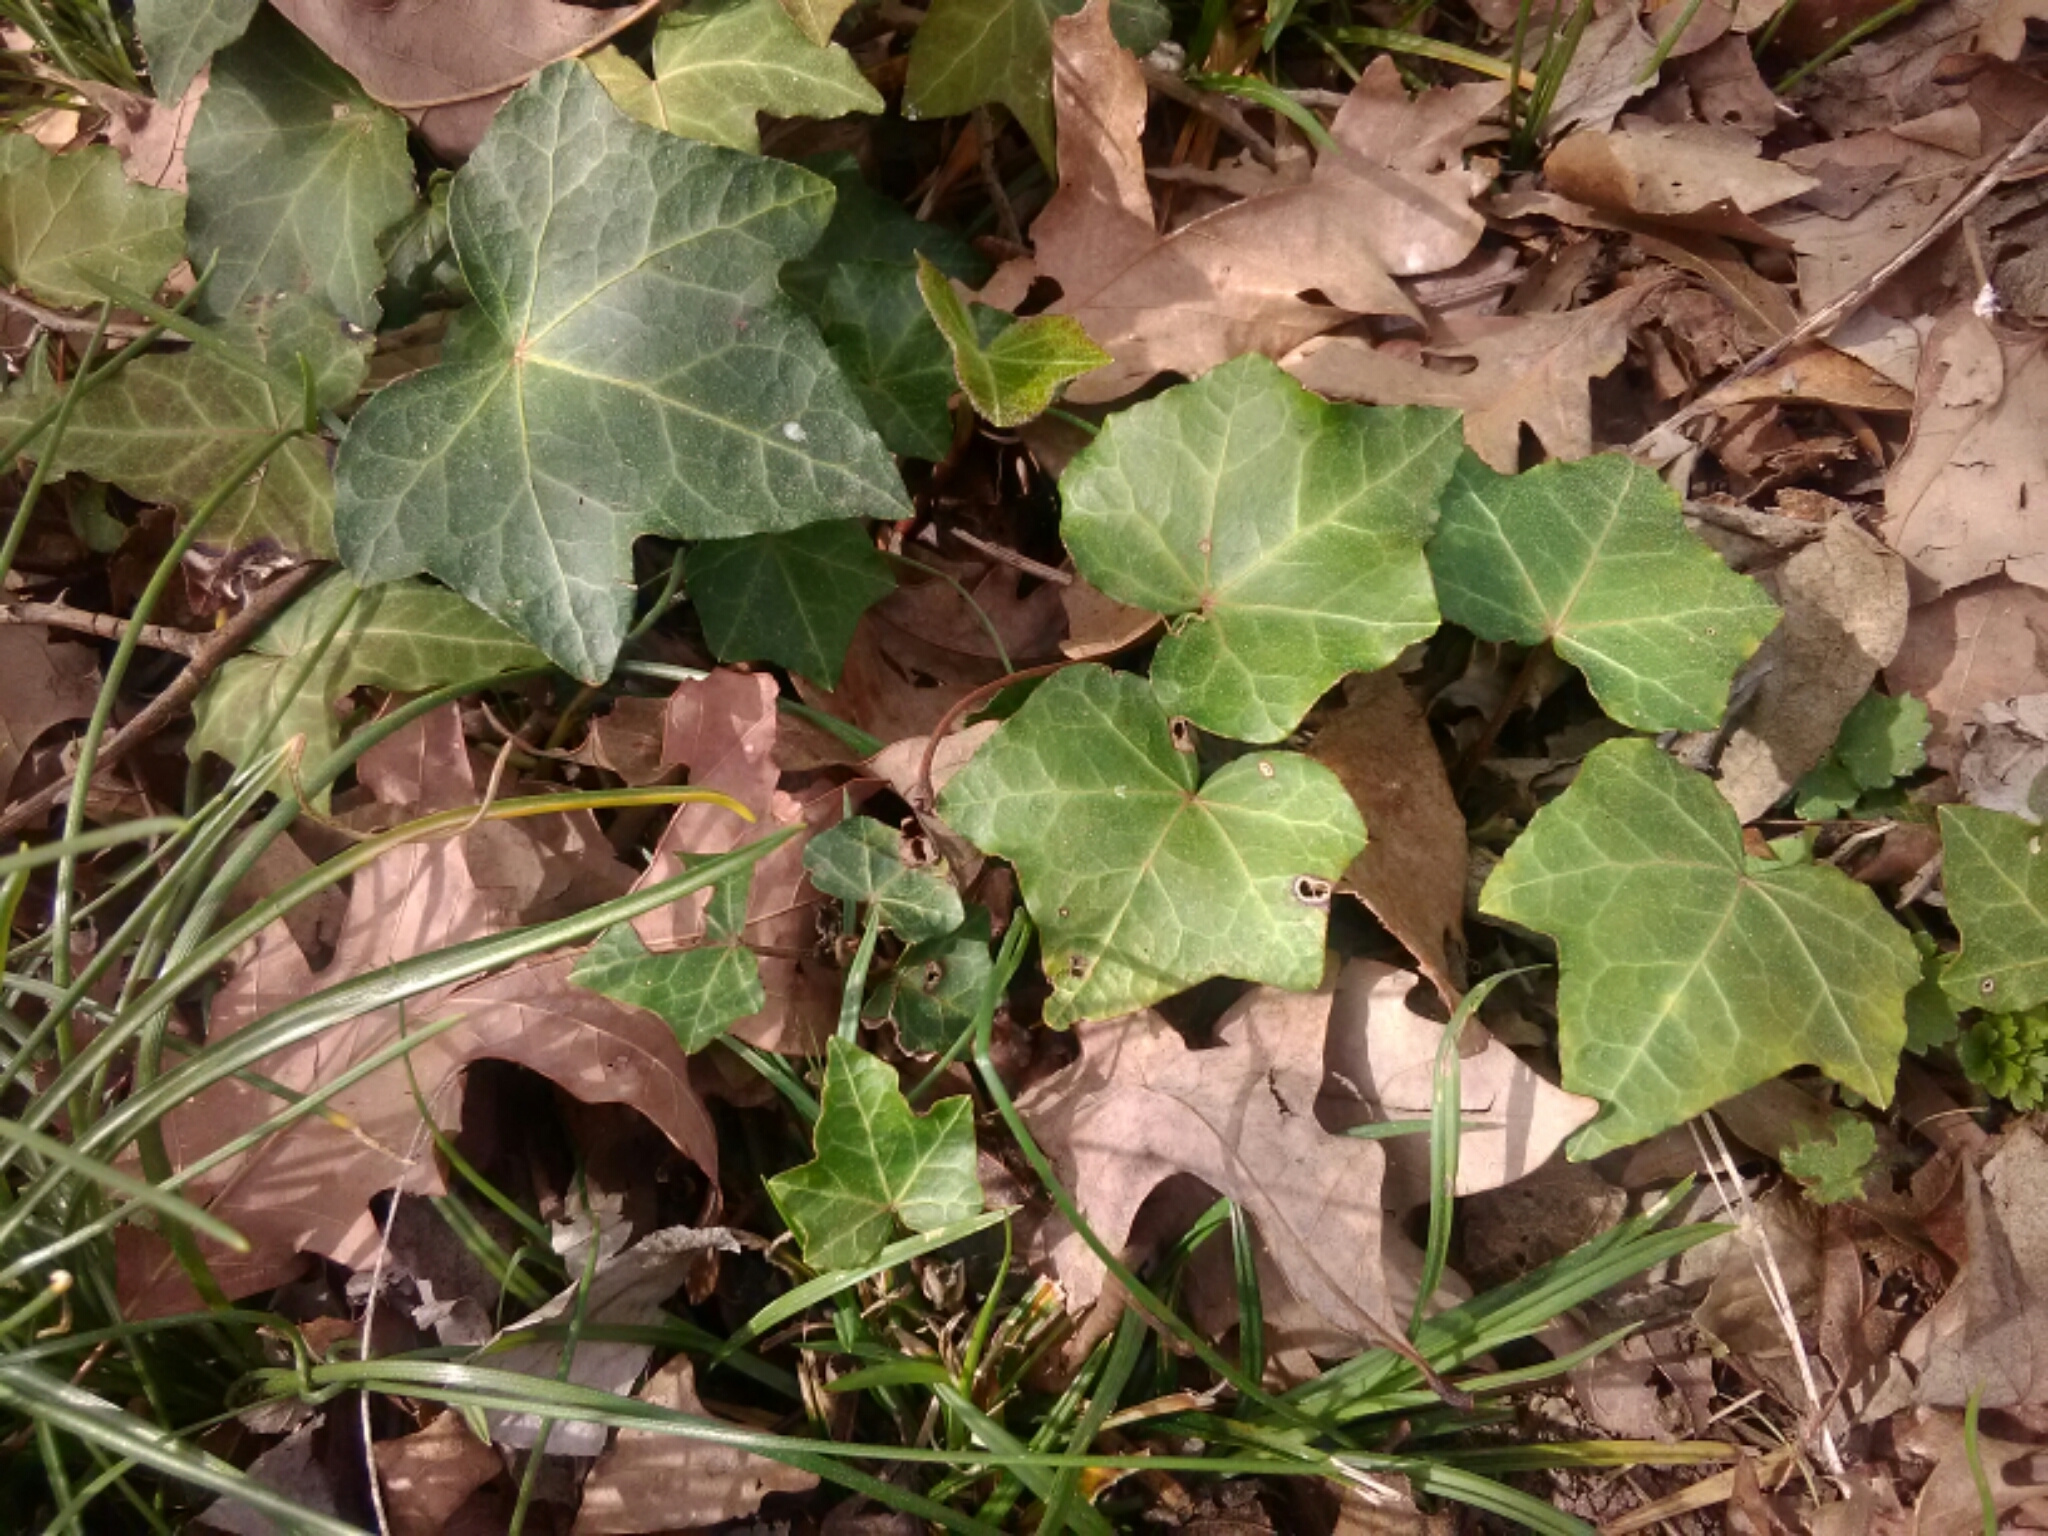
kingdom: Plantae
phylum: Tracheophyta
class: Magnoliopsida
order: Apiales
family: Araliaceae
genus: Hedera
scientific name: Hedera helix
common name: Ivy
